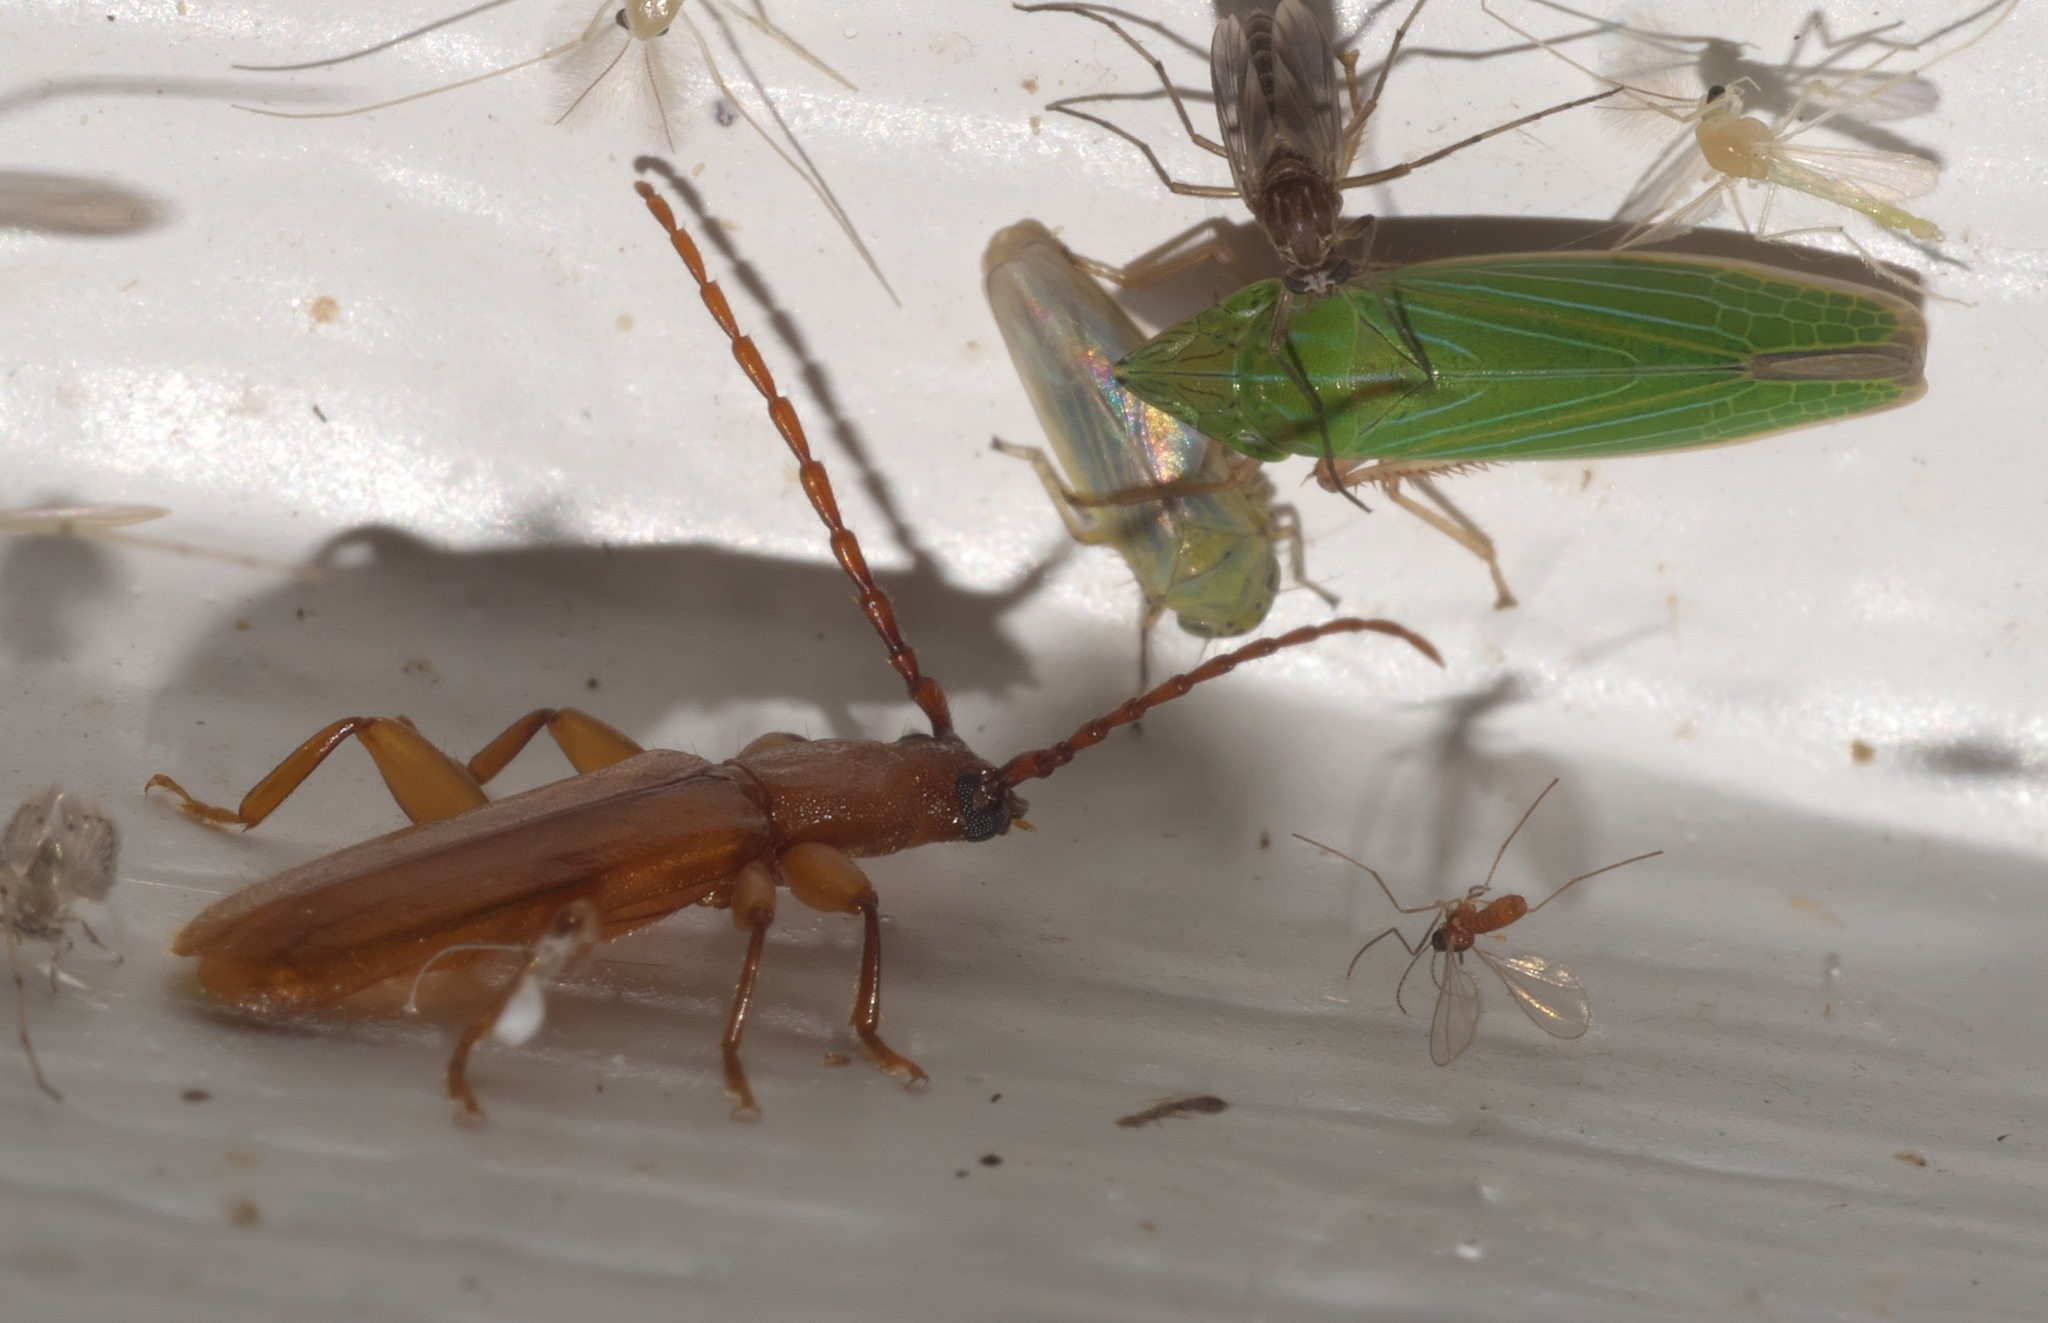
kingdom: Animalia
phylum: Arthropoda
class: Insecta
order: Coleoptera
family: Cerambycidae
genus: Smodicum
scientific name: Smodicum cucujiforme
